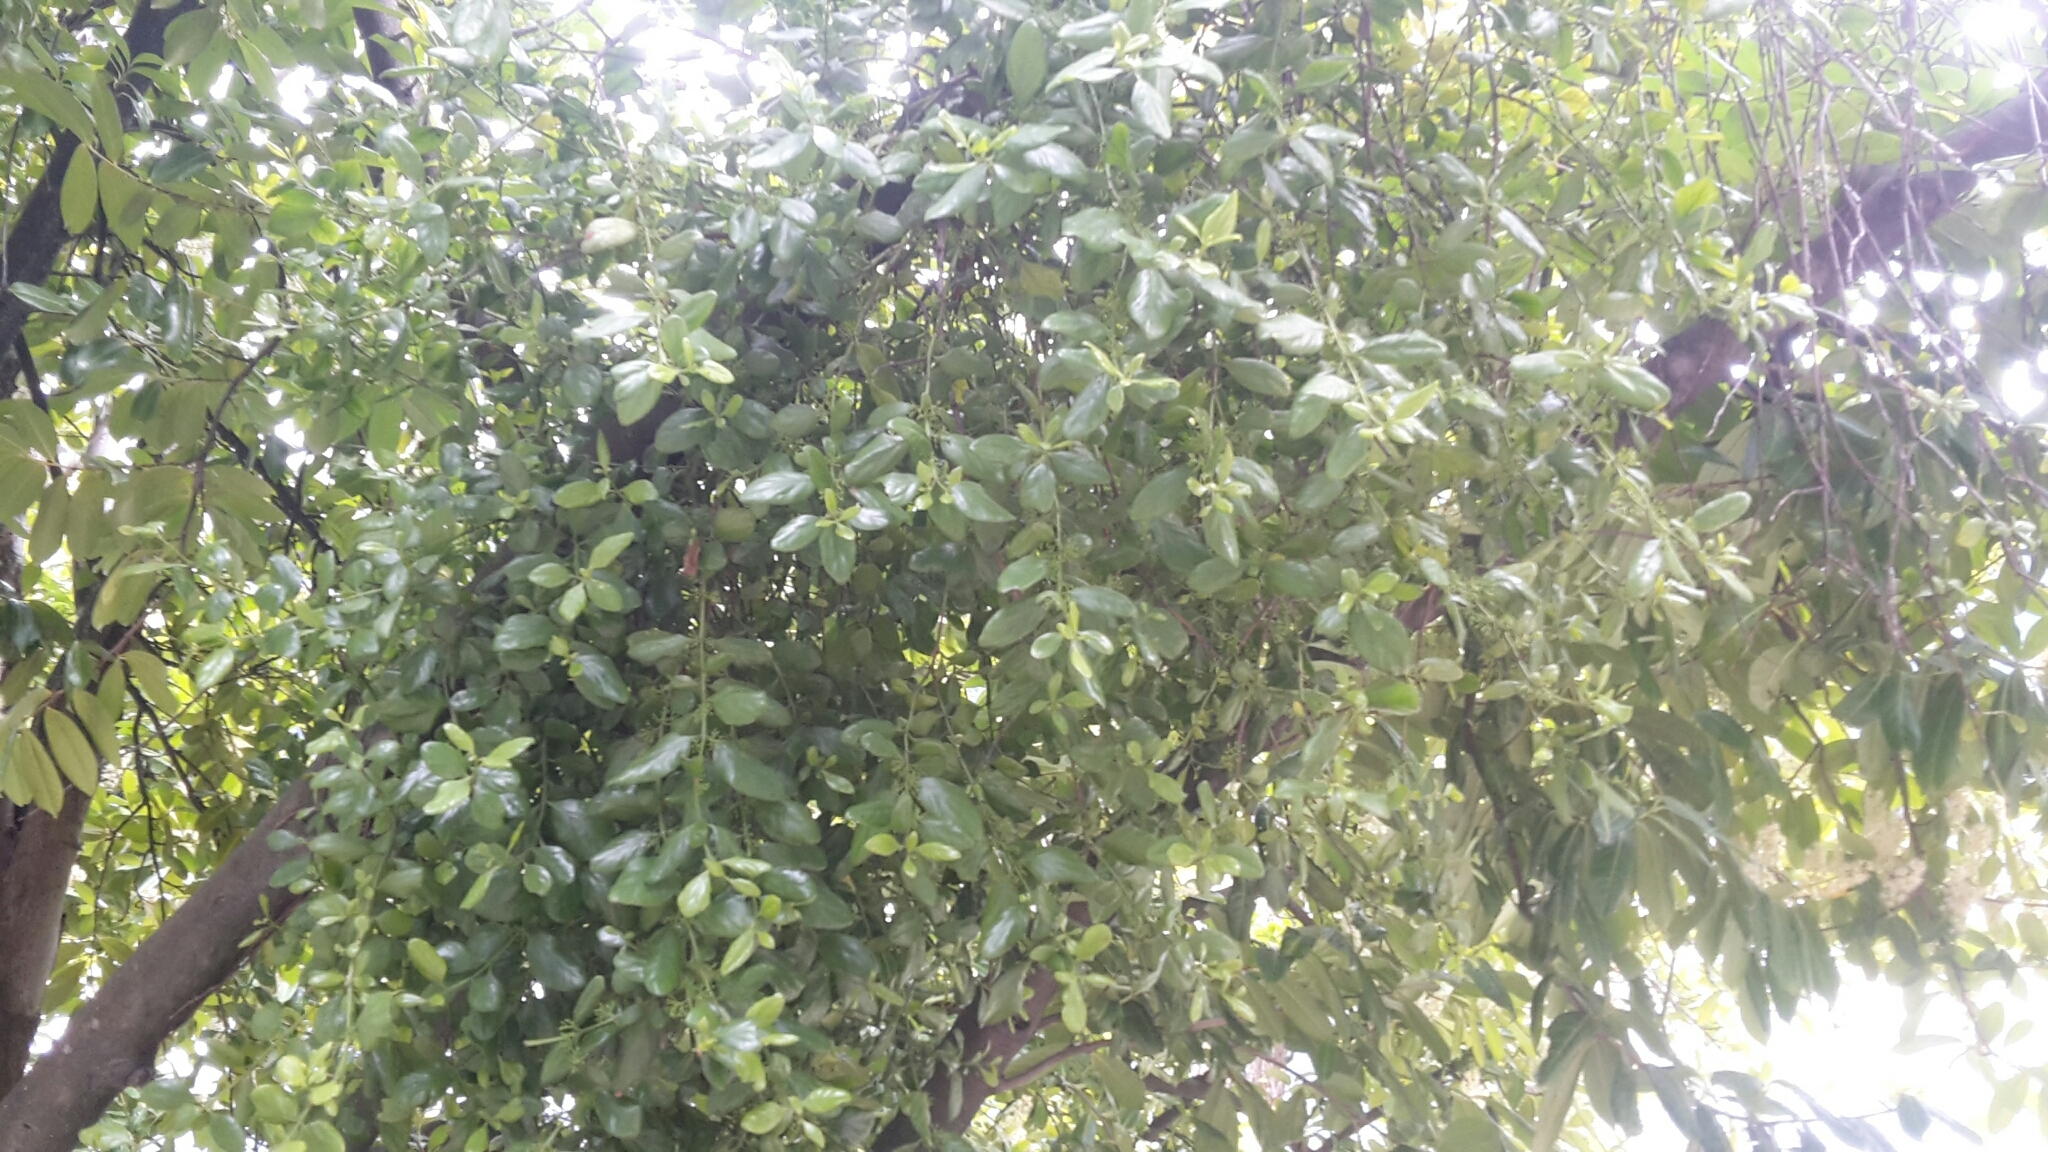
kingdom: Plantae
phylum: Tracheophyta
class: Magnoliopsida
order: Santalales
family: Loranthaceae
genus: Ileostylus
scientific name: Ileostylus micranthus
